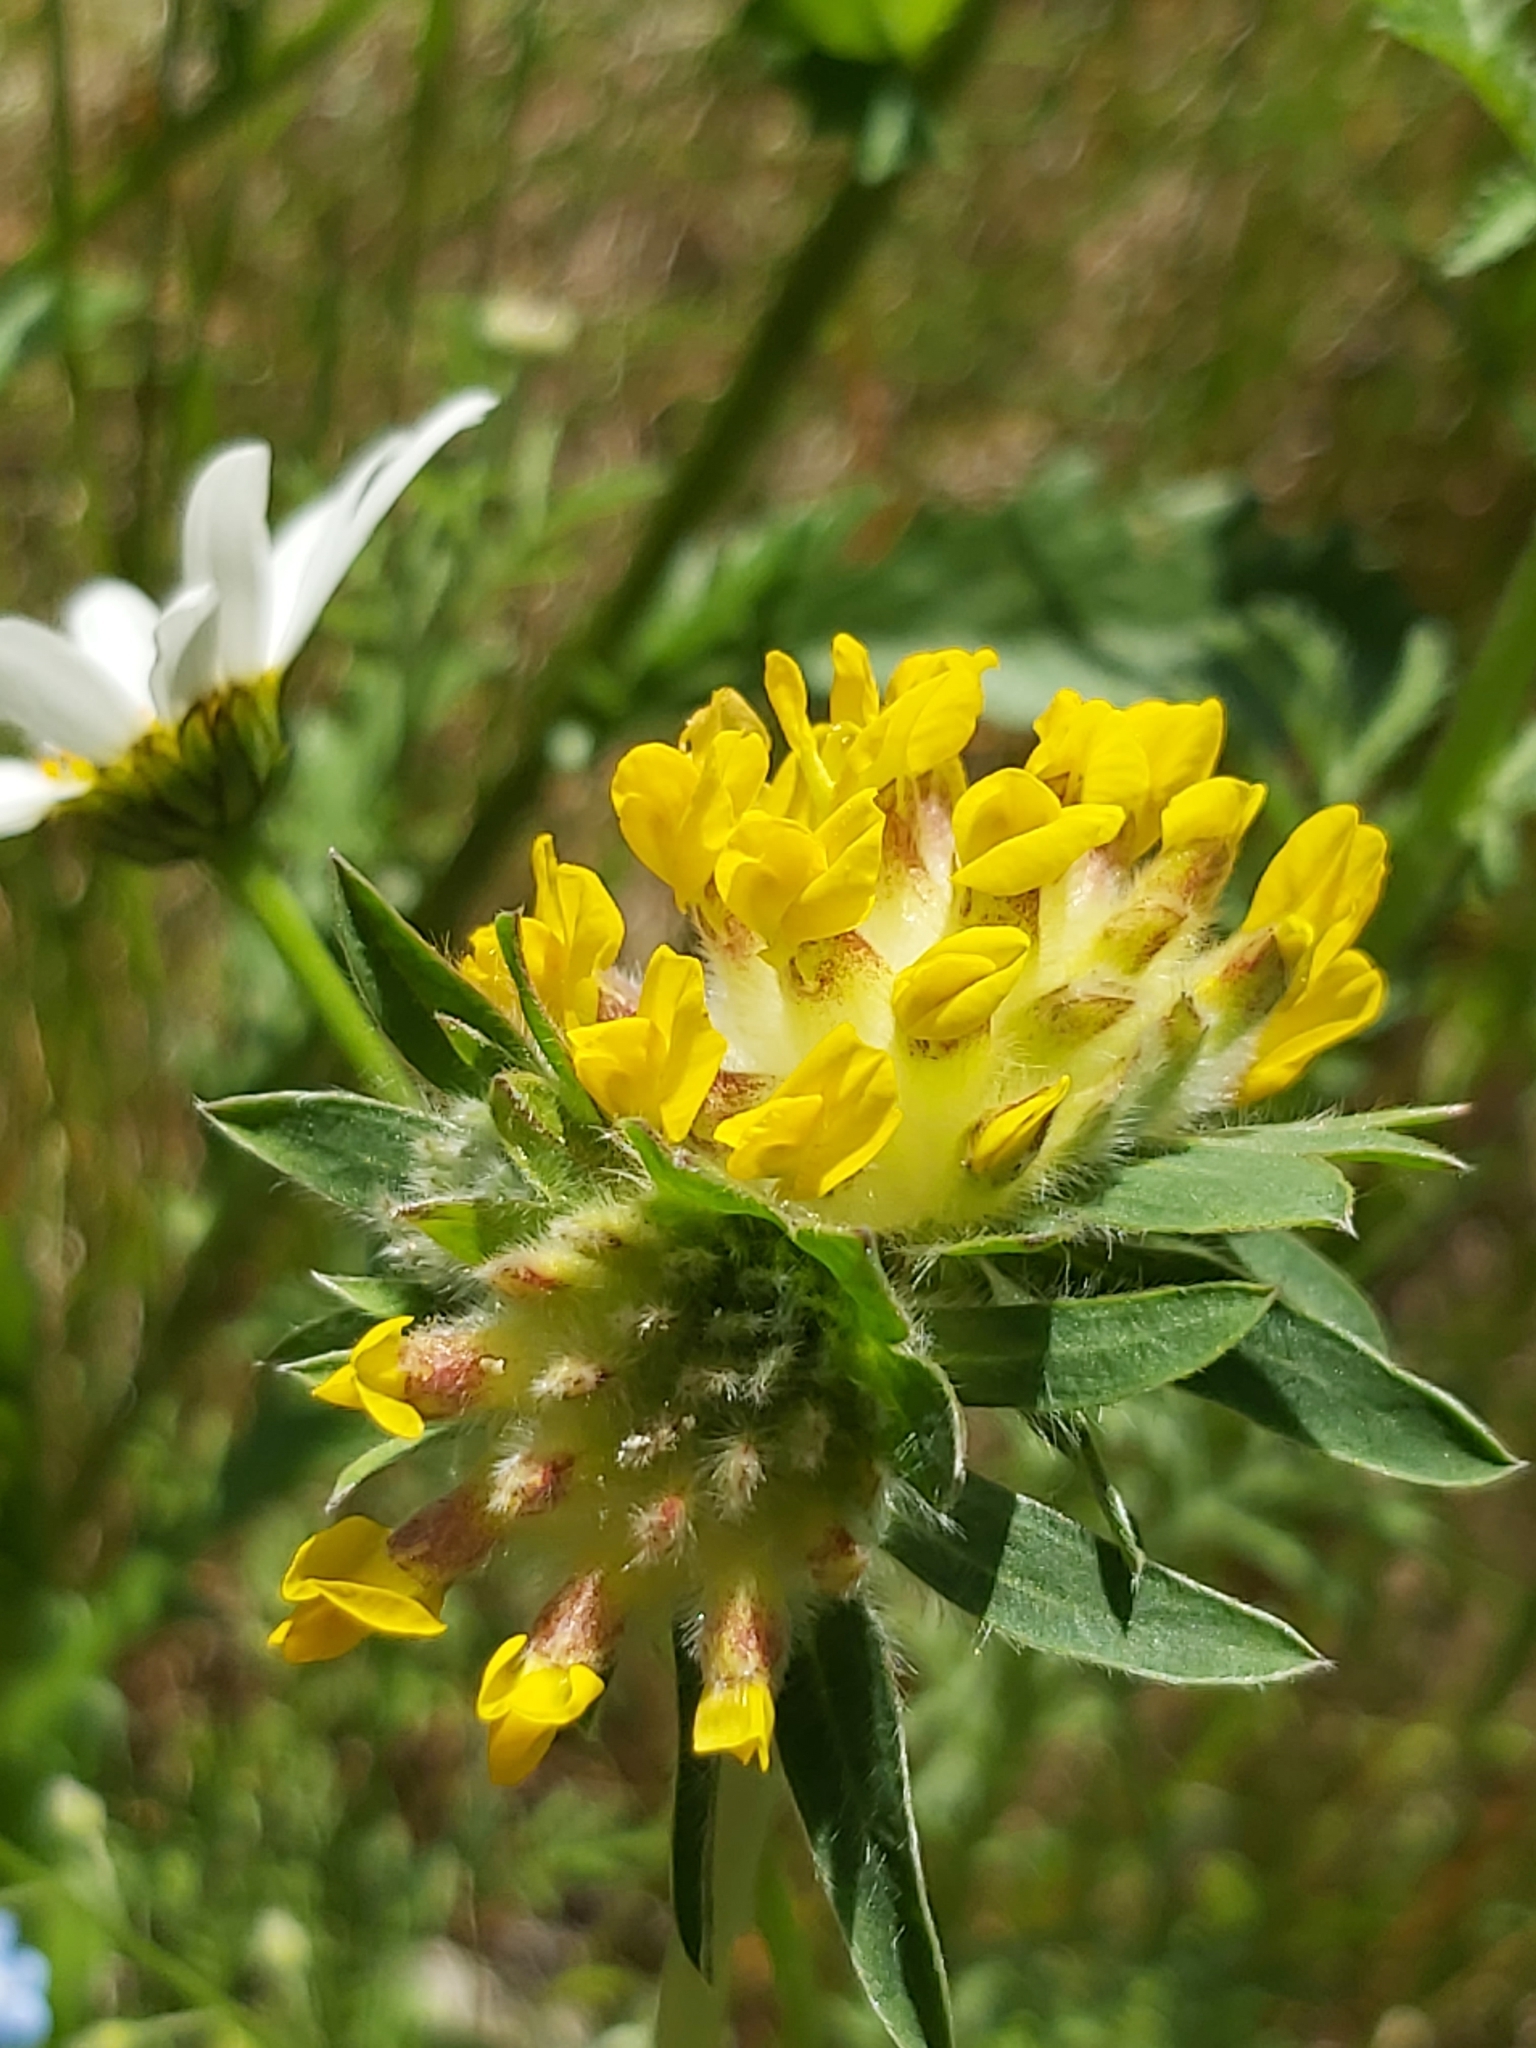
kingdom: Plantae
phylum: Tracheophyta
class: Magnoliopsida
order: Fabales
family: Fabaceae
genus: Anthyllis
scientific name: Anthyllis vulneraria
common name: Kidney vetch
